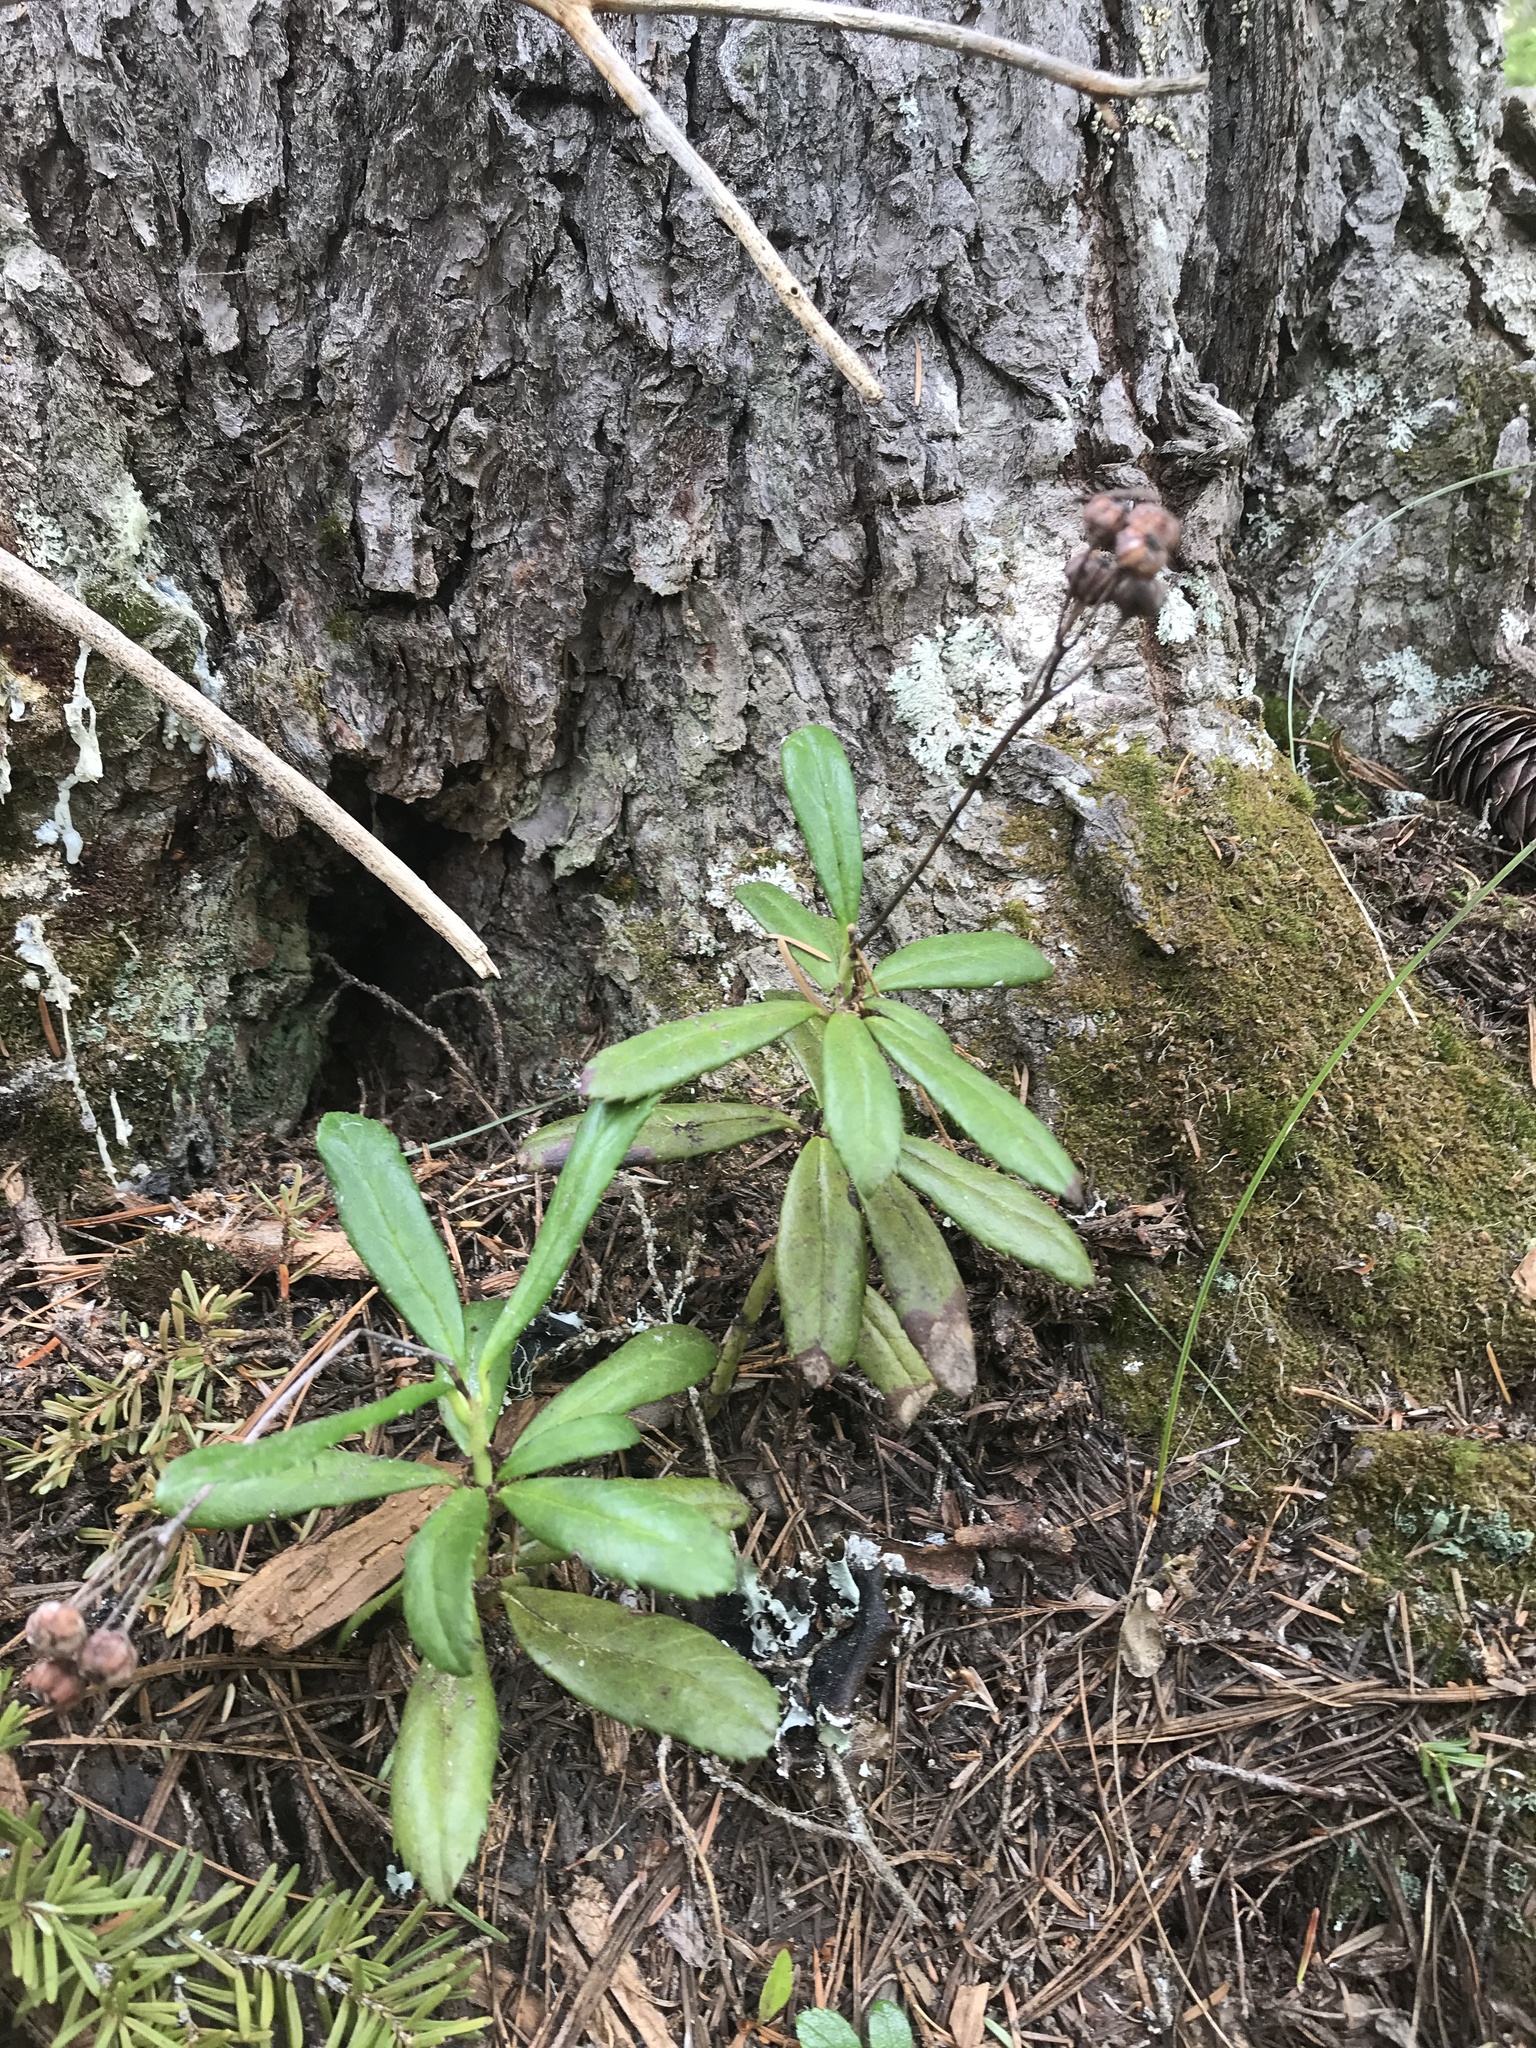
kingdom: Plantae
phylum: Tracheophyta
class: Magnoliopsida
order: Ericales
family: Ericaceae
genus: Chimaphila
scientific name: Chimaphila umbellata
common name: Pipsissewa
